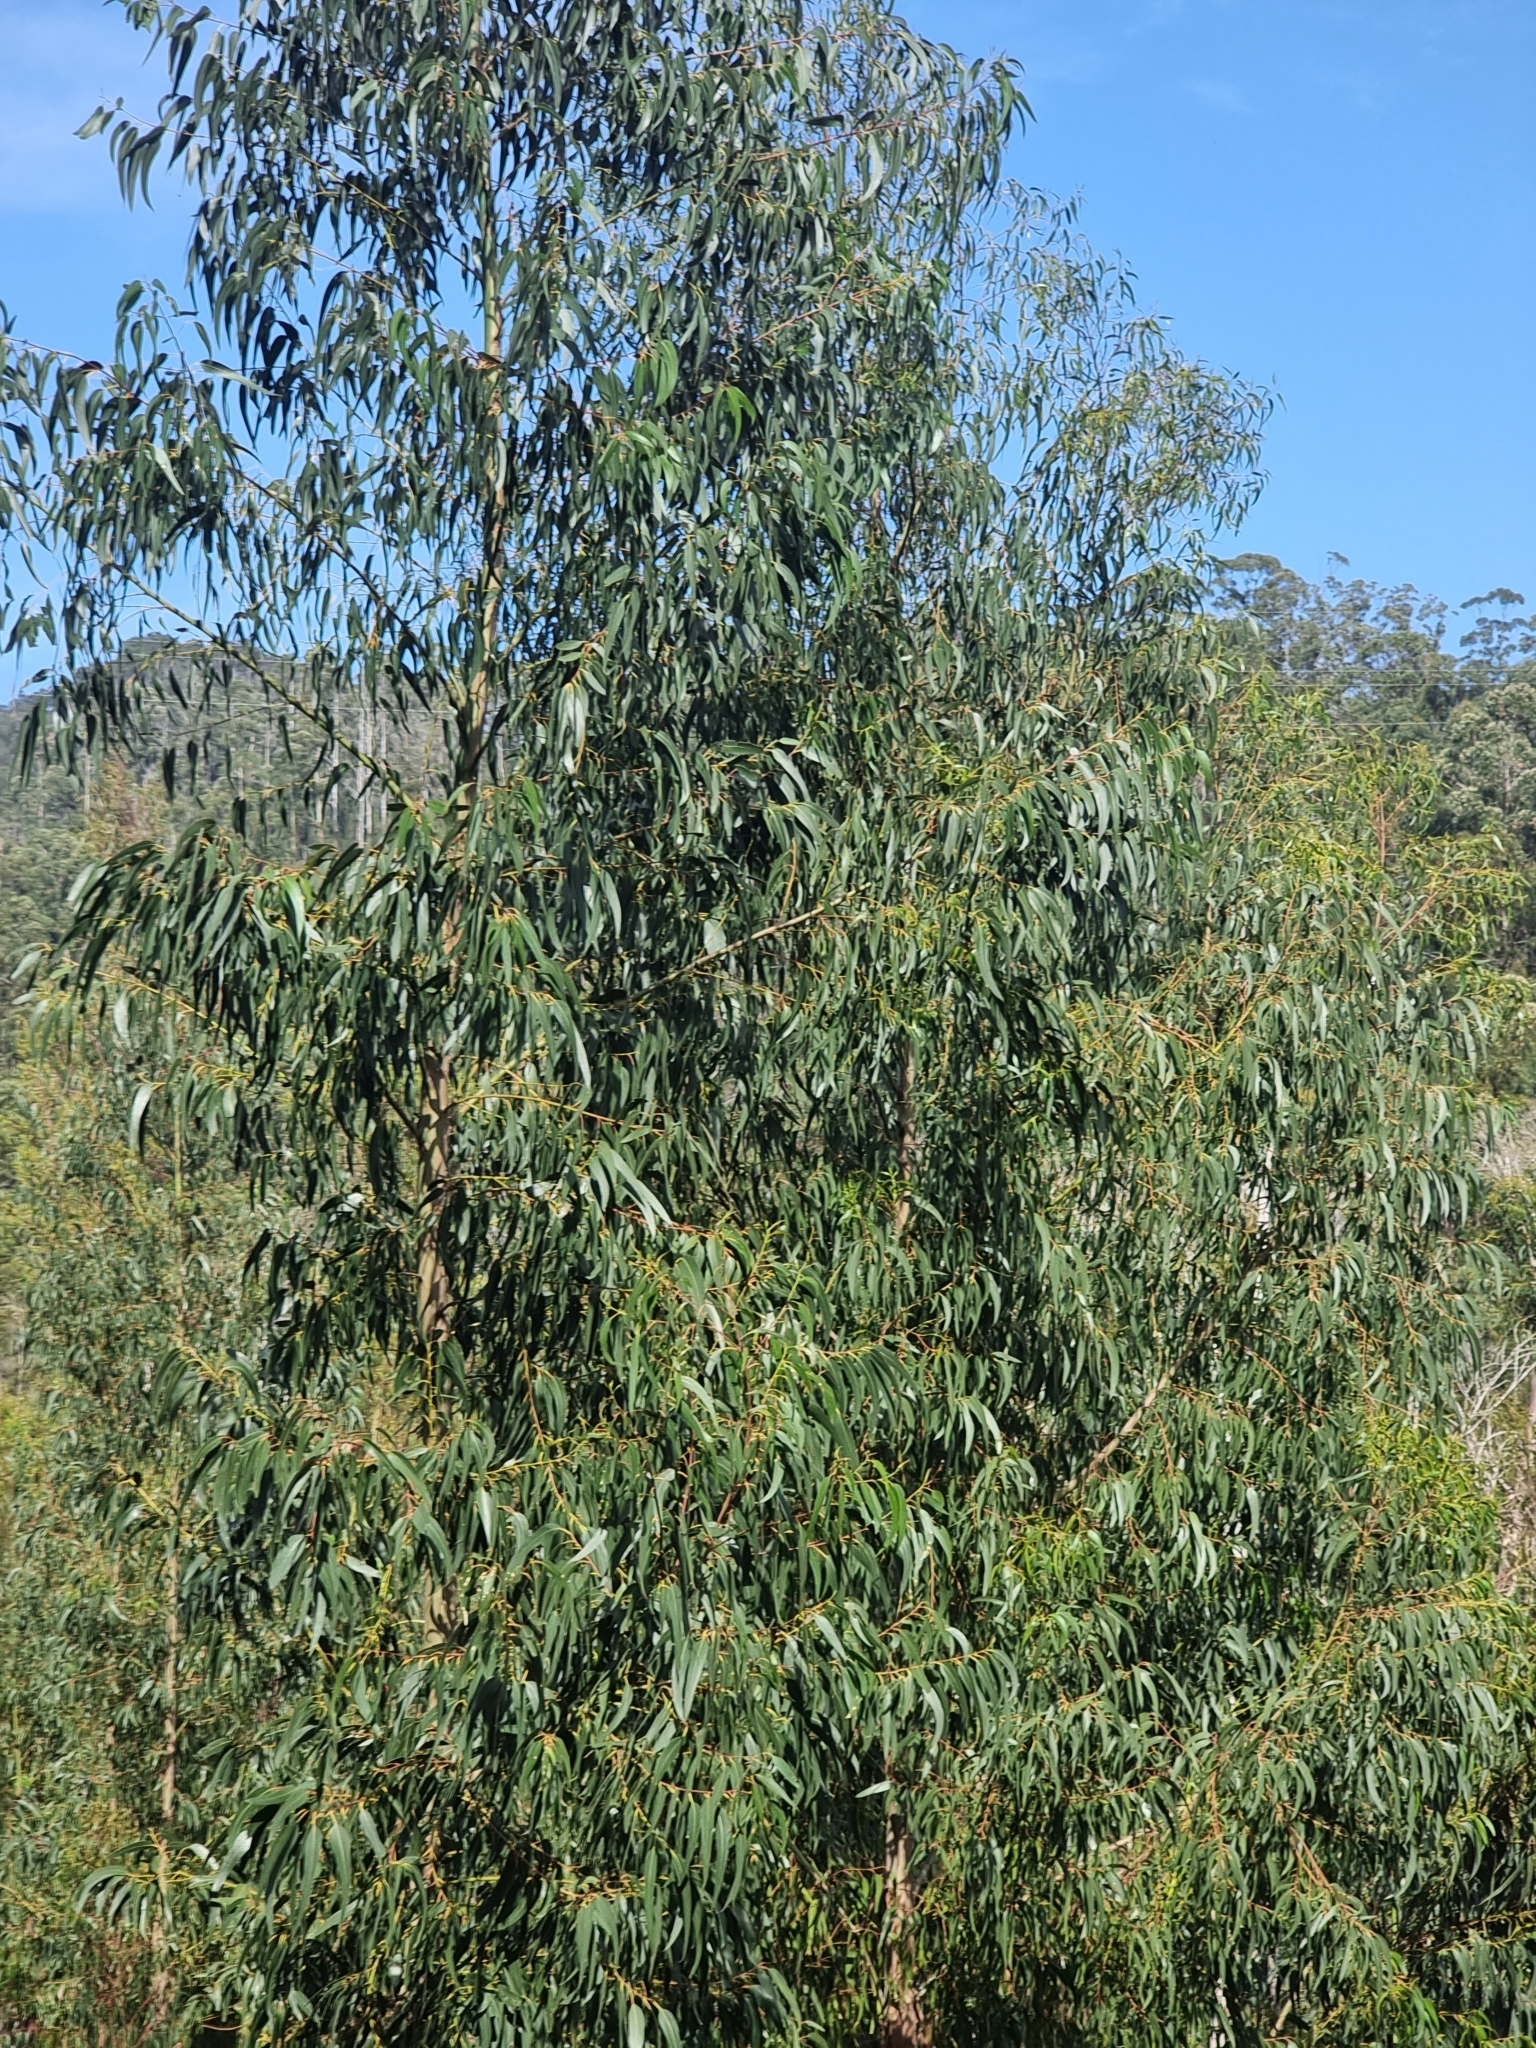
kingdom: Plantae
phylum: Tracheophyta
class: Magnoliopsida
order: Myrtales
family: Myrtaceae
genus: Eucalyptus
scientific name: Eucalyptus globulus
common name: Southern blue-gum
